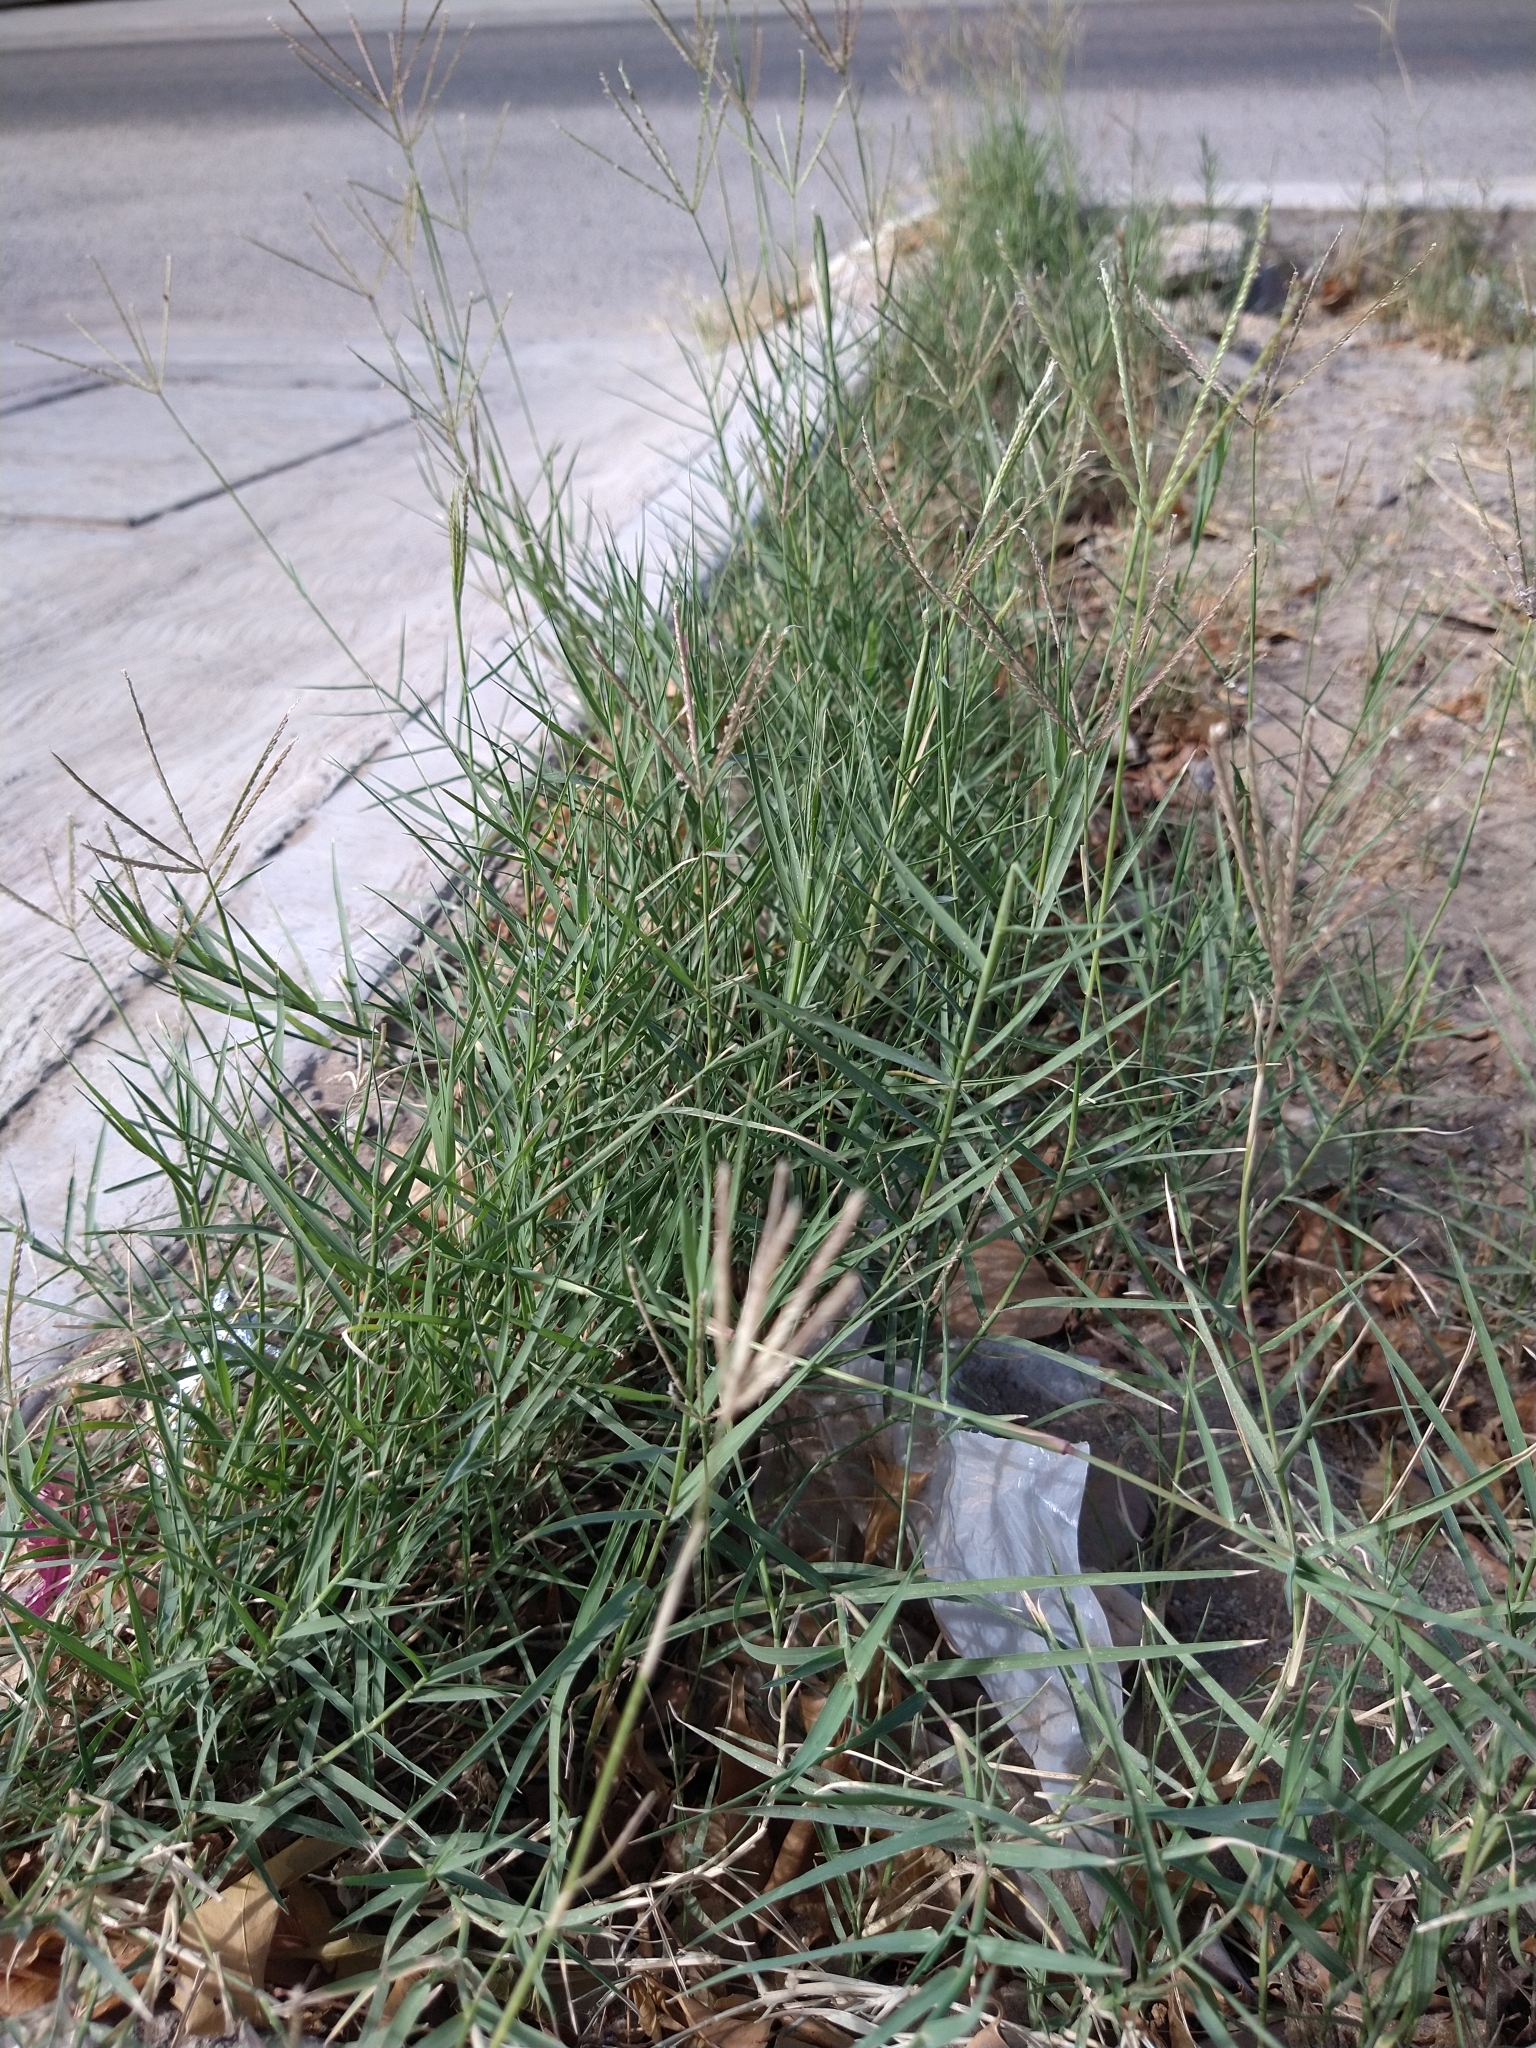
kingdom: Plantae
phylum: Tracheophyta
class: Liliopsida
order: Poales
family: Poaceae
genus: Cynodon
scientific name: Cynodon dactylon
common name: Bermuda grass
